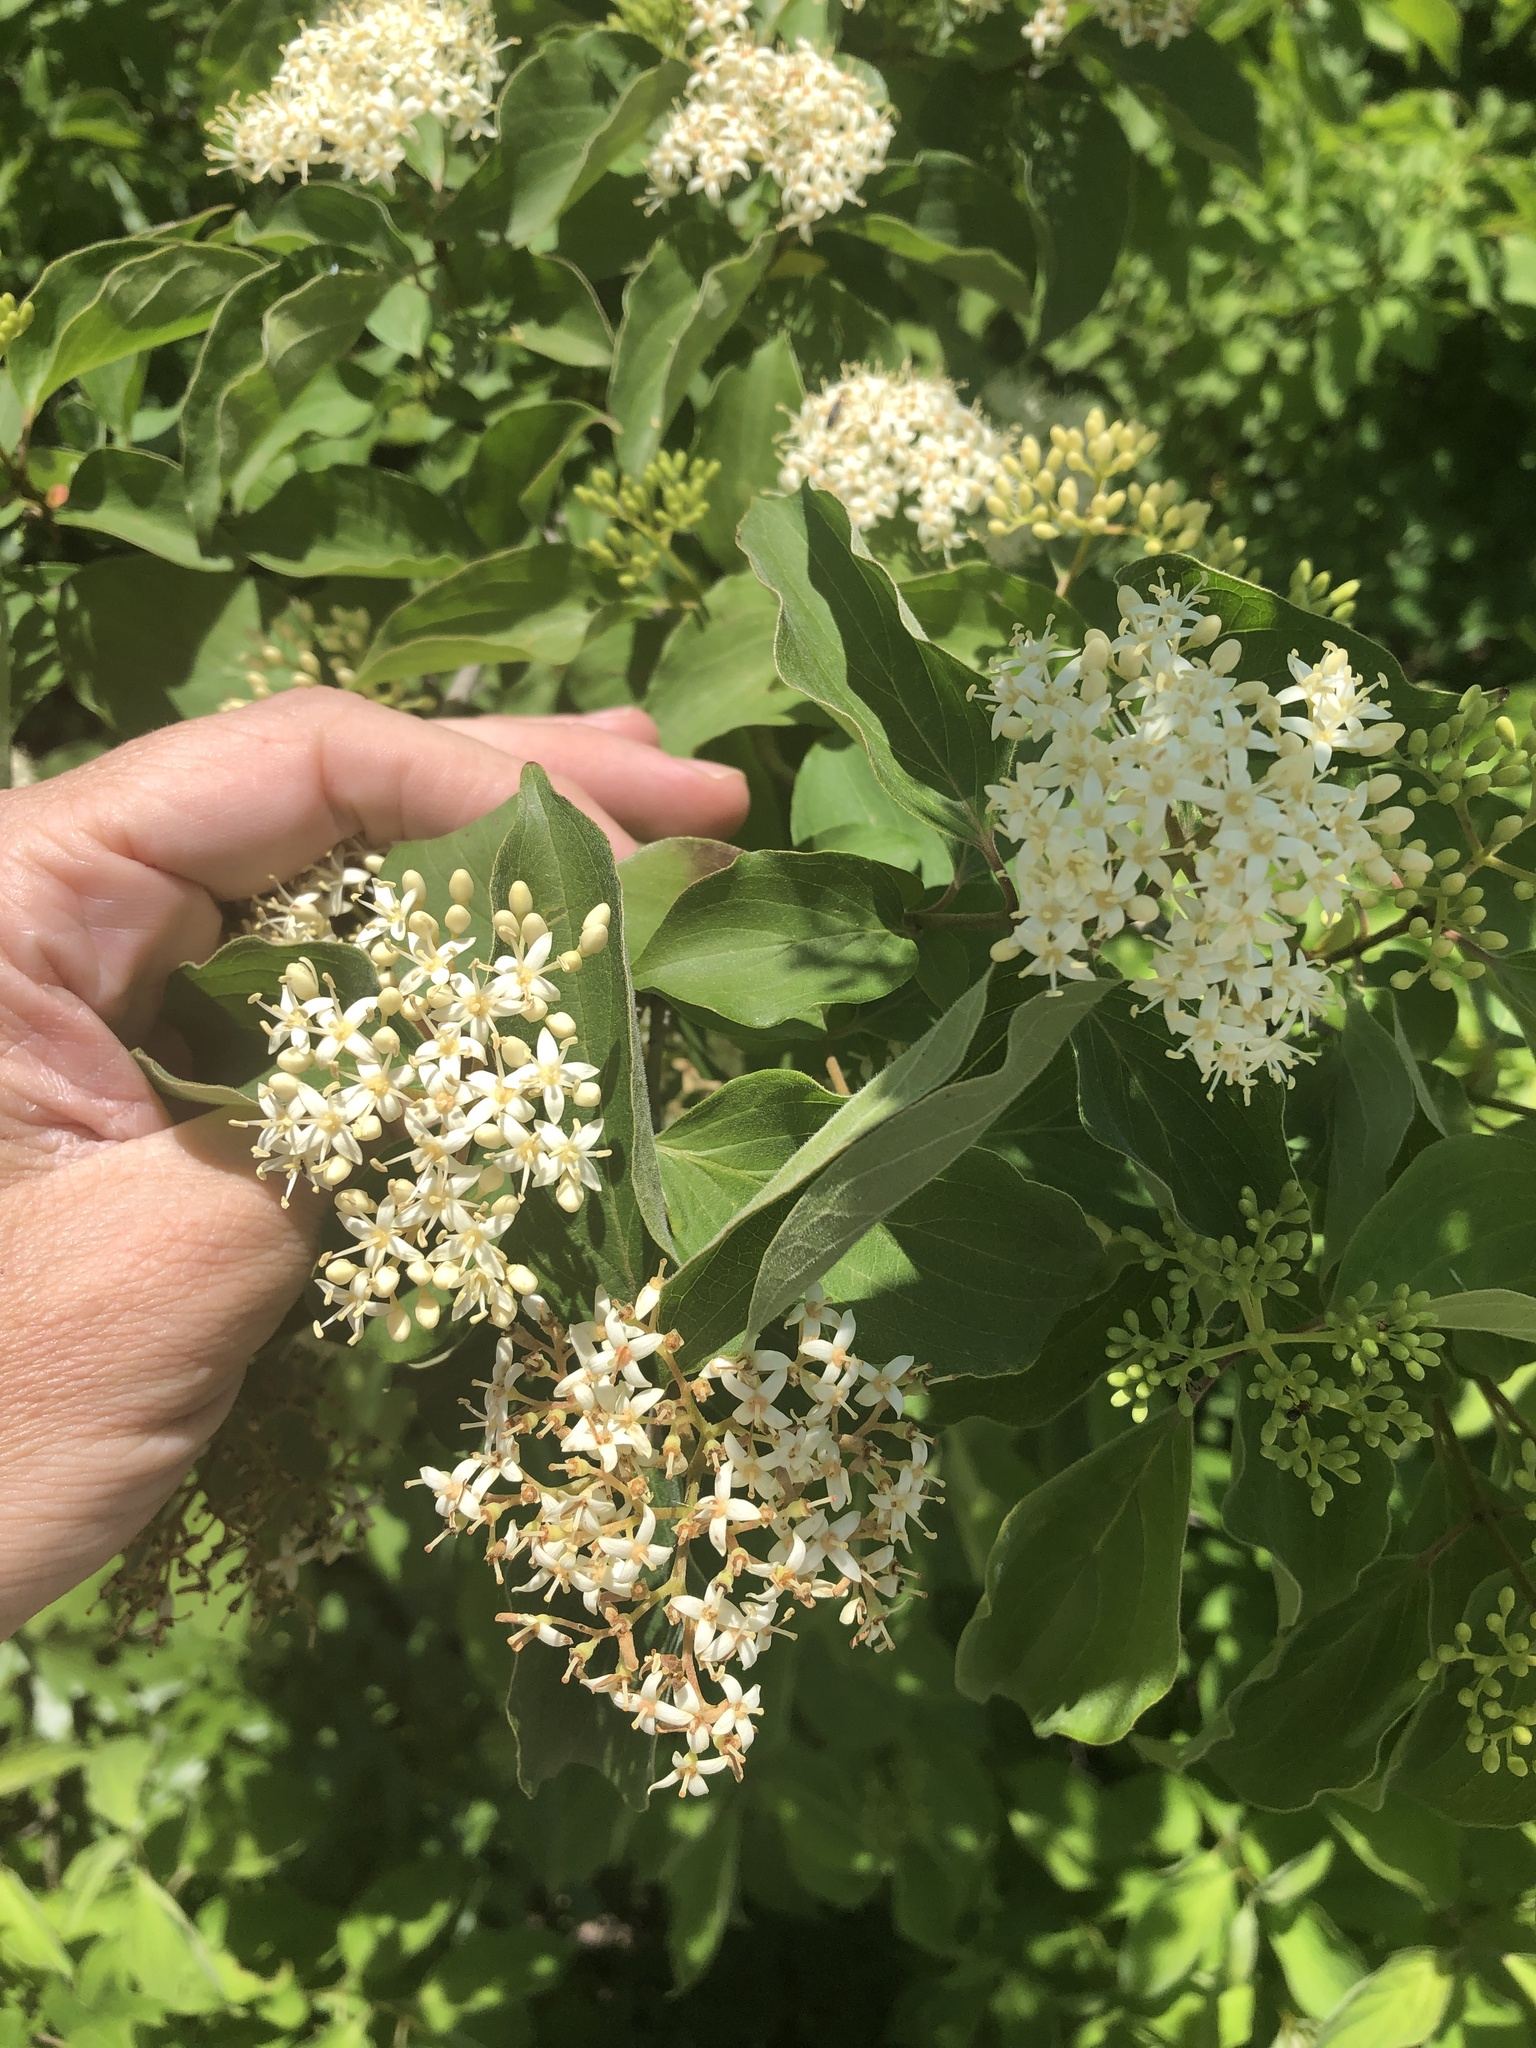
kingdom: Plantae
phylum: Tracheophyta
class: Magnoliopsida
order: Cornales
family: Cornaceae
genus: Cornus
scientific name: Cornus drummondii
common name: Rough-leaf dogwood
